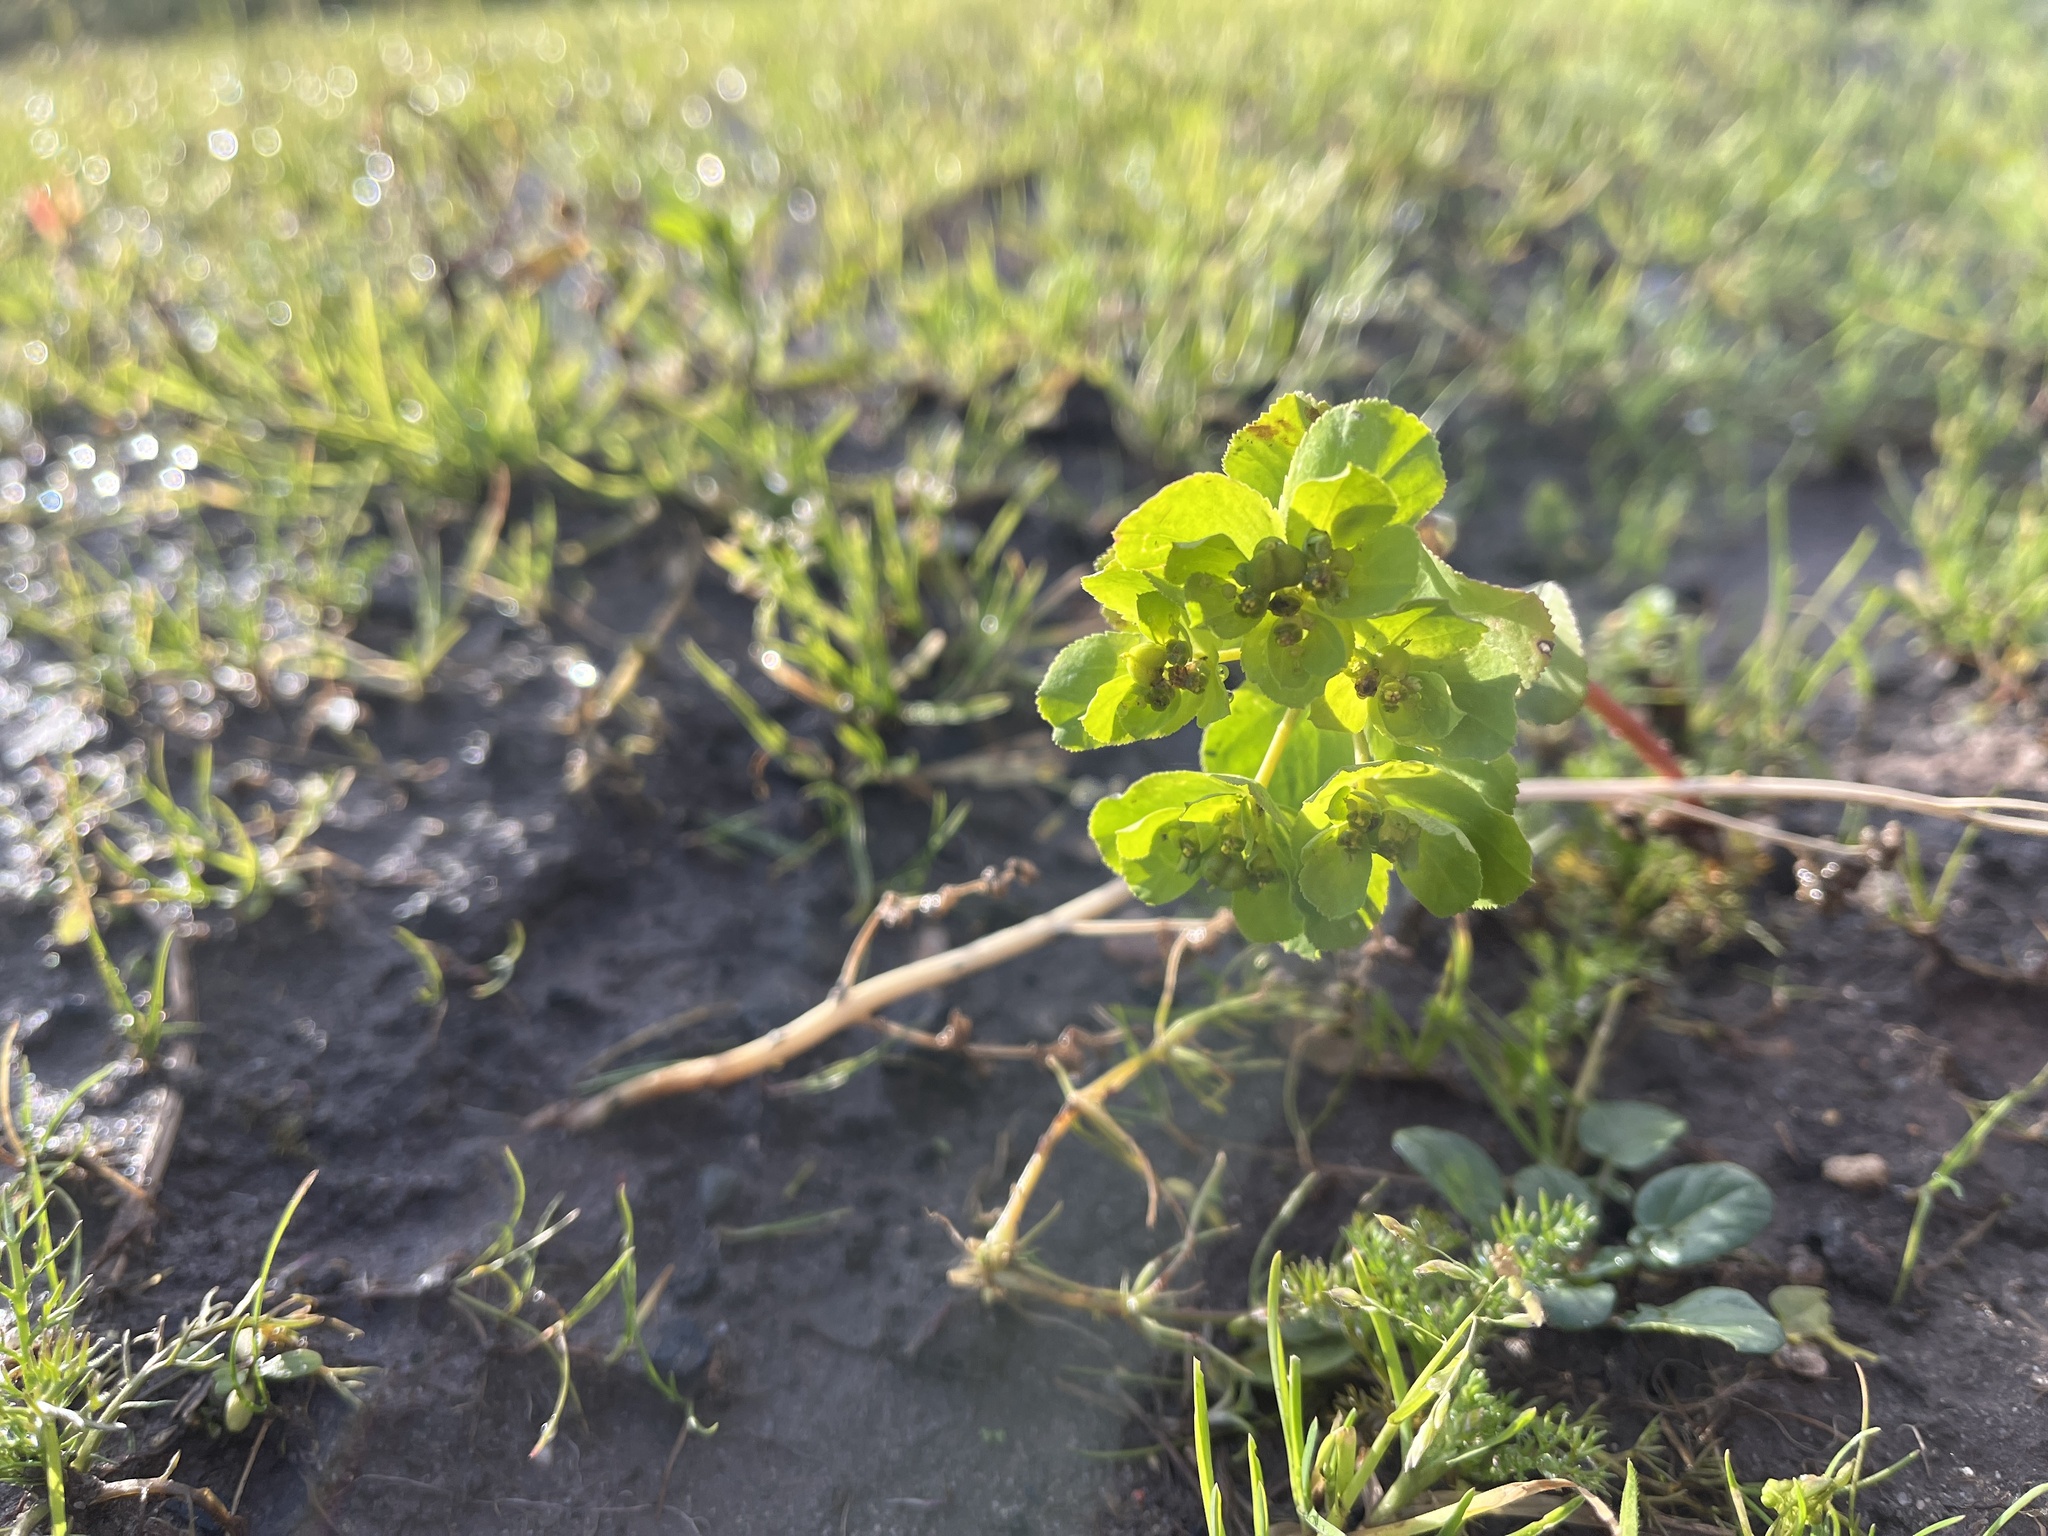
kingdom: Plantae
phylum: Tracheophyta
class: Magnoliopsida
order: Malpighiales
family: Euphorbiaceae
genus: Euphorbia
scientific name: Euphorbia helioscopia
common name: Sun spurge
